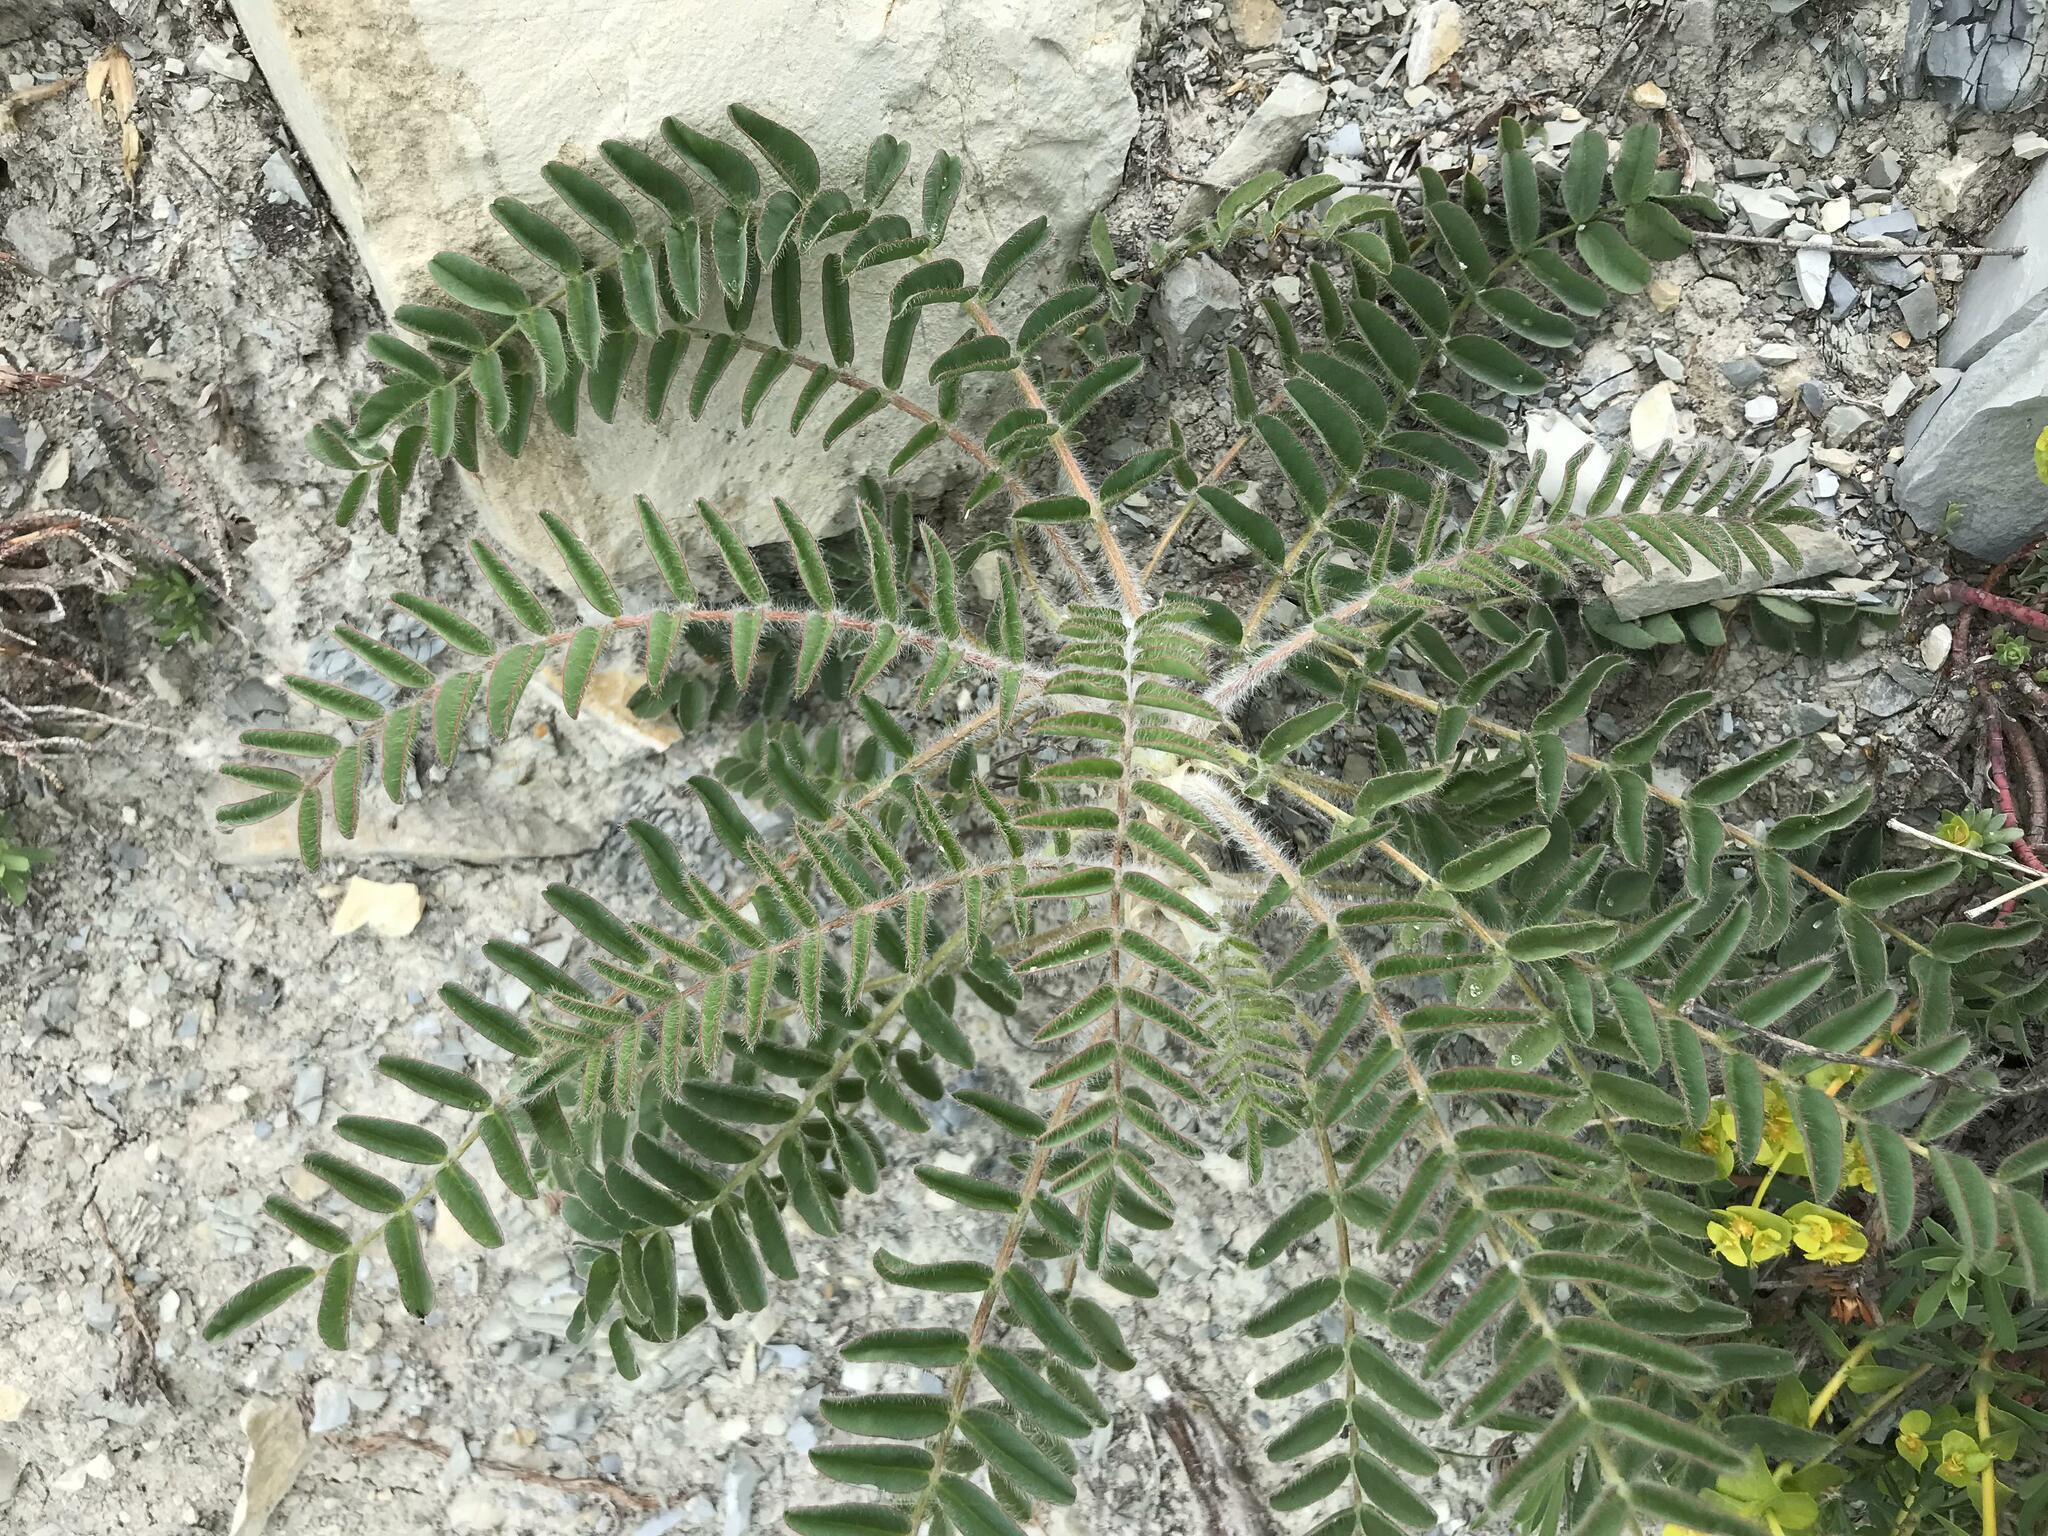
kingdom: Plantae
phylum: Tracheophyta
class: Magnoliopsida
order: Fabales
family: Fabaceae
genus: Astragalus
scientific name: Astragalus utriger
